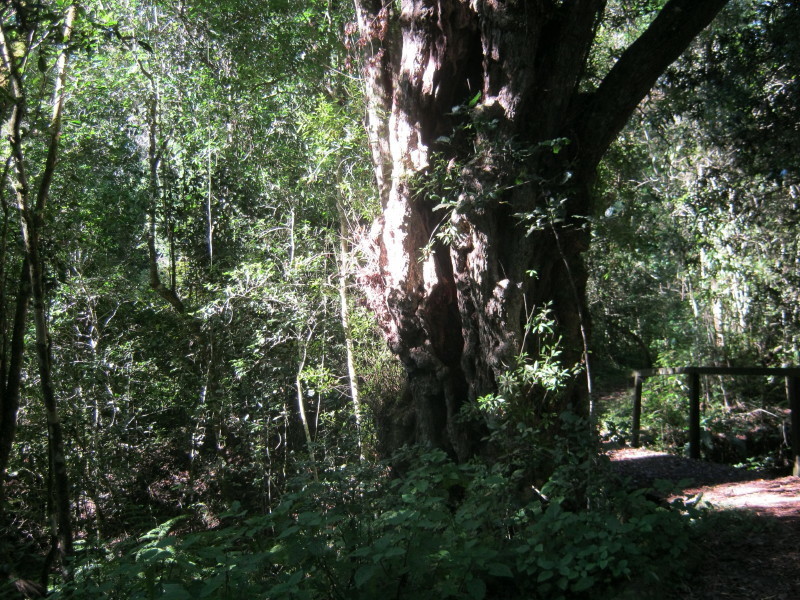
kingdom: Plantae
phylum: Tracheophyta
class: Magnoliopsida
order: Oxalidales
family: Cunoniaceae
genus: Platylophus
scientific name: Platylophus trifoliatus
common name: White alder
